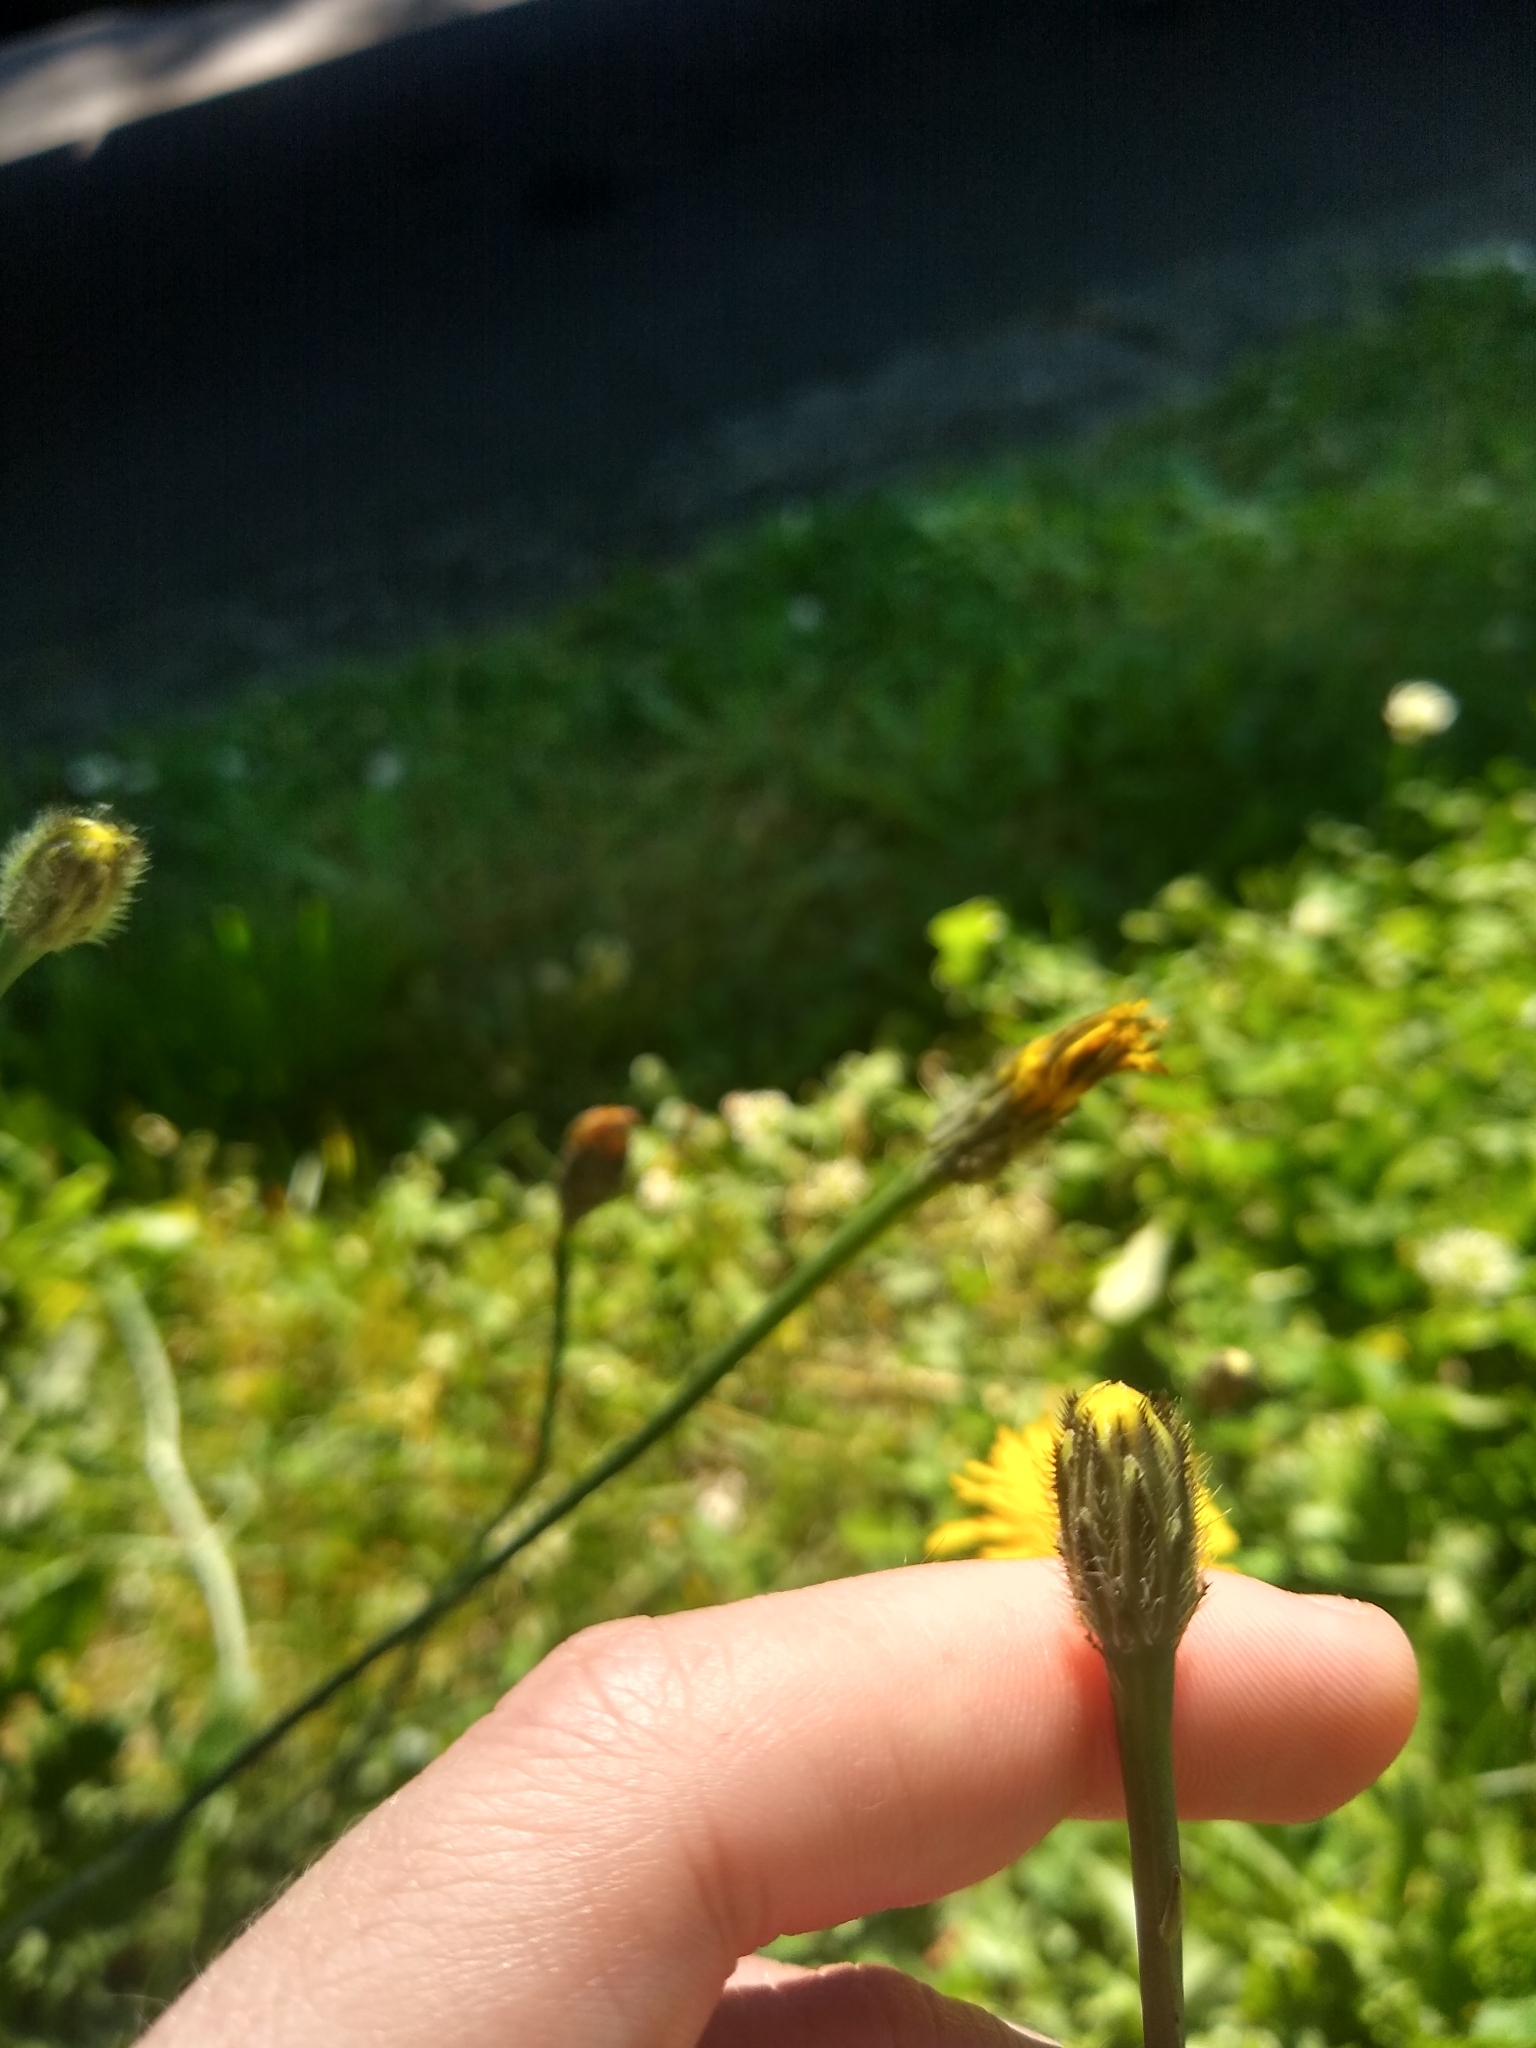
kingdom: Plantae
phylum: Tracheophyta
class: Magnoliopsida
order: Asterales
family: Asteraceae
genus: Hypochaeris
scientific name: Hypochaeris radicata
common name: Flatweed
